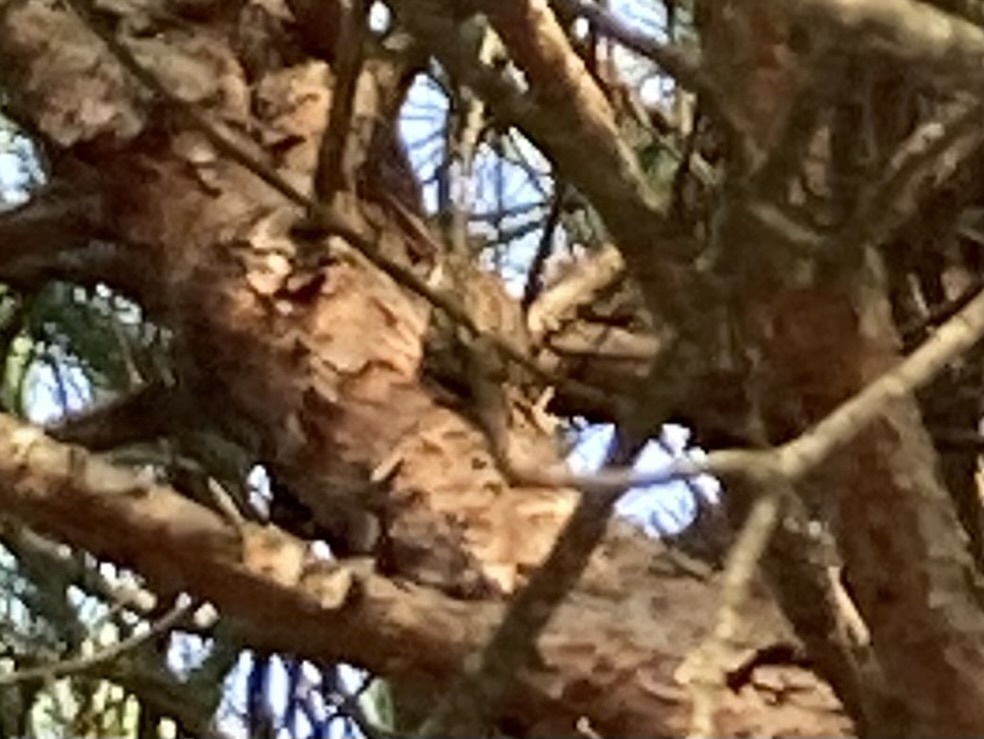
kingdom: Animalia
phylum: Chordata
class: Aves
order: Passeriformes
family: Certhiidae
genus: Certhia
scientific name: Certhia brachydactyla
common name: Short-toed treecreeper
